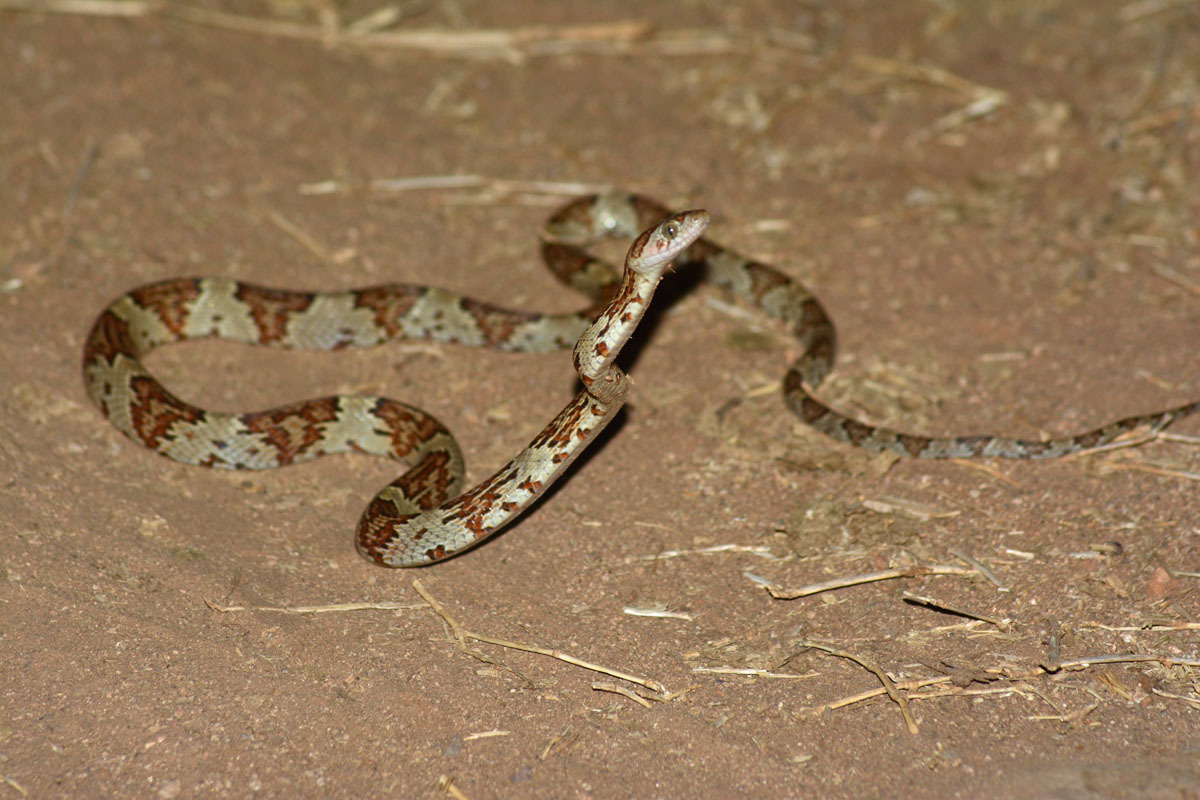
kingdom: Animalia
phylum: Chordata
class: Squamata
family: Colubridae
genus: Trimorphodon
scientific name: Trimorphodon paucimaculatus
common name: Sinaloan lyresnake
